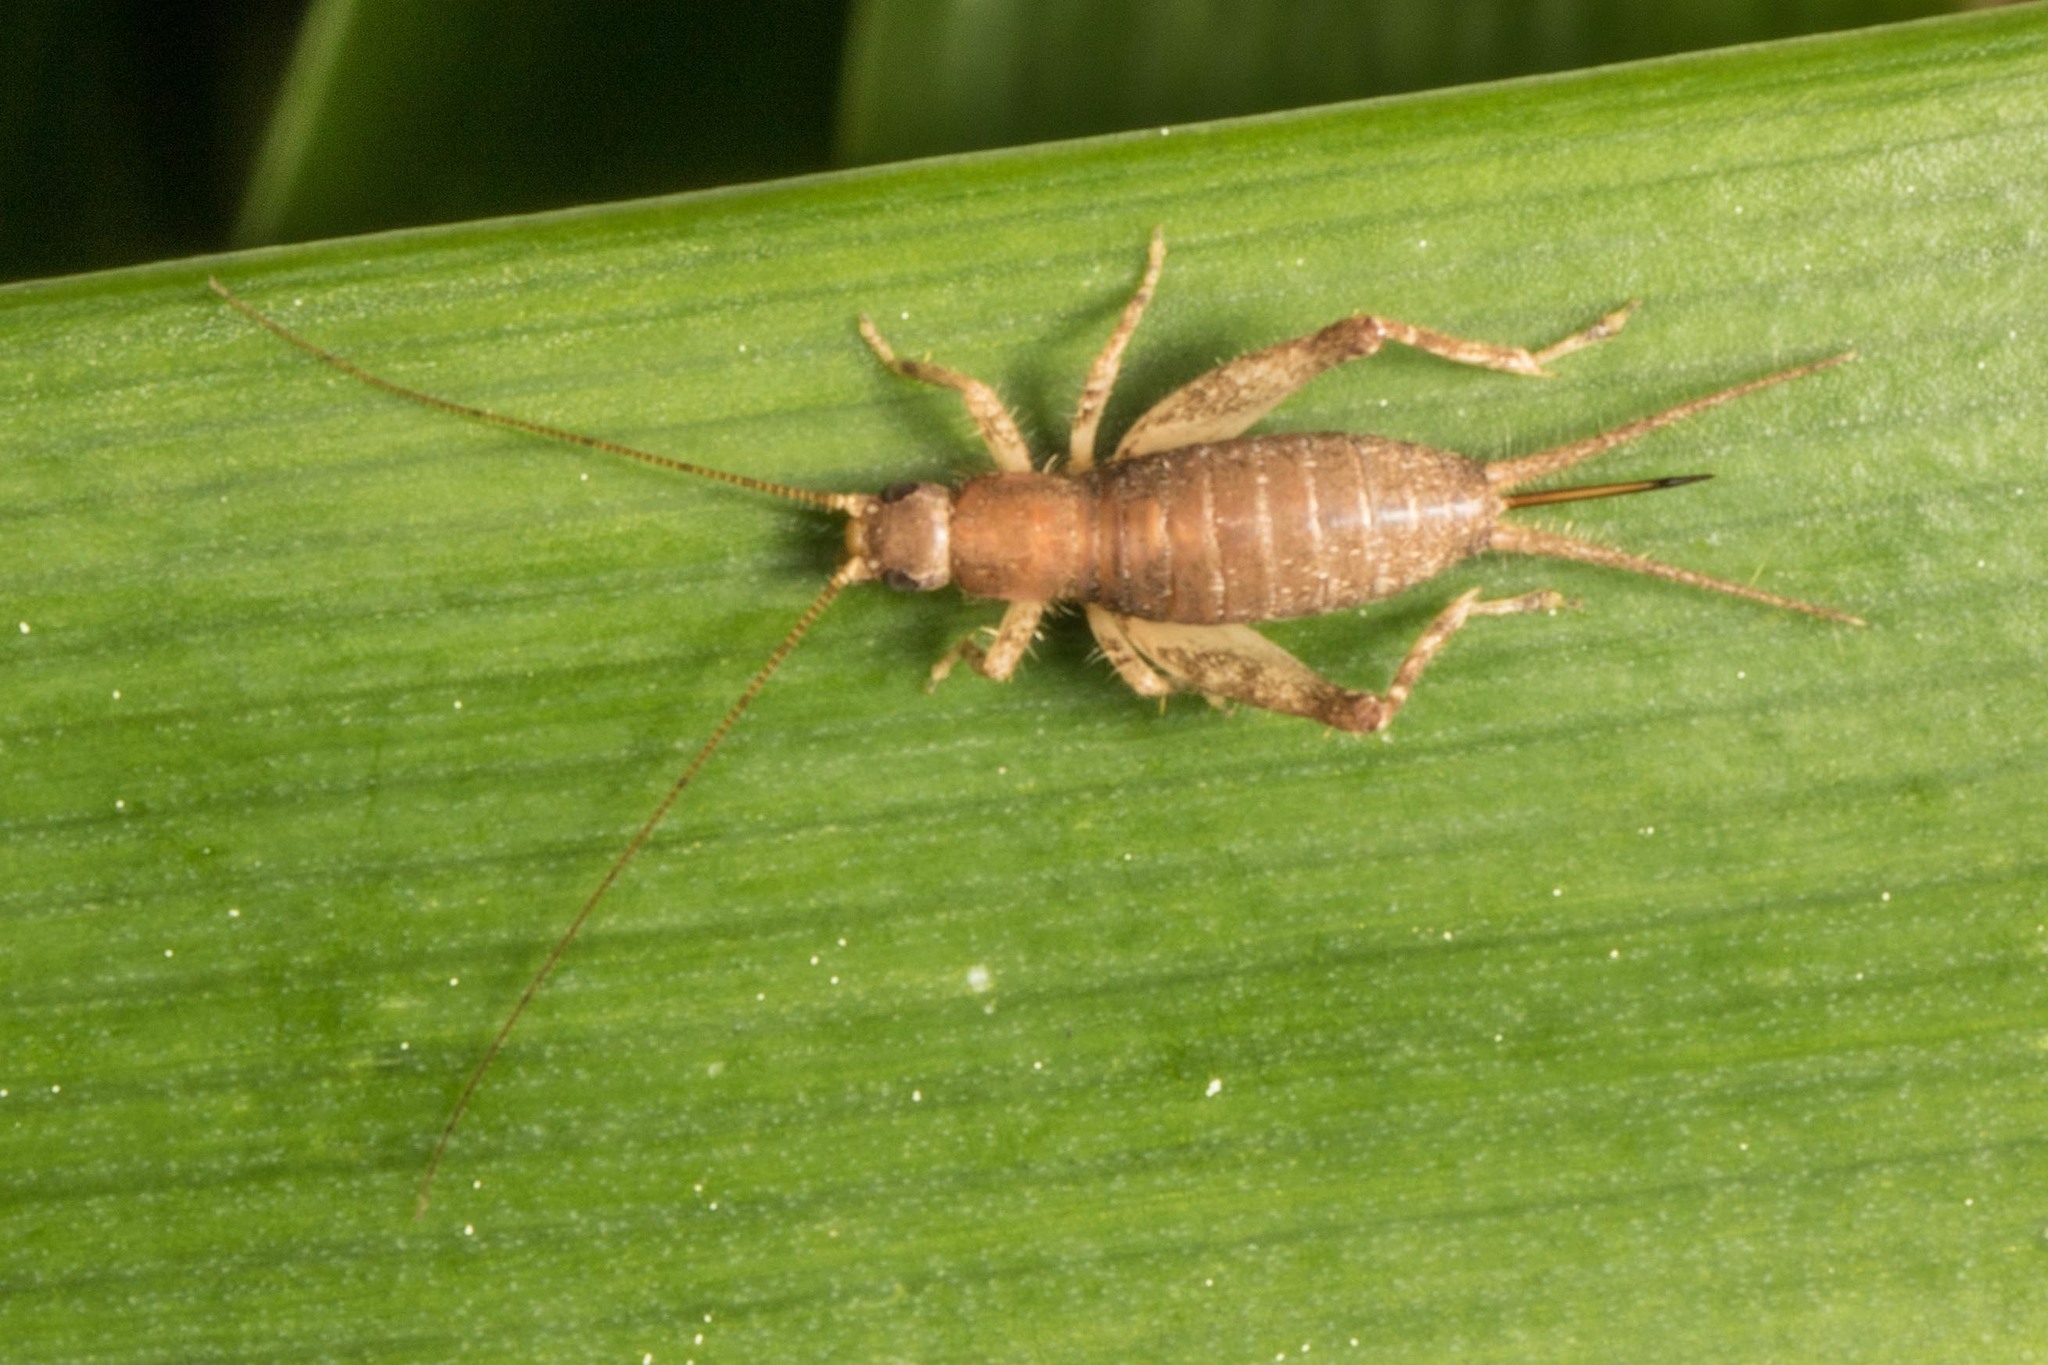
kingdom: Animalia
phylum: Arthropoda
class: Insecta
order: Orthoptera
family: Mogoplistidae
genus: Ornebius
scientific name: Ornebius aperta
